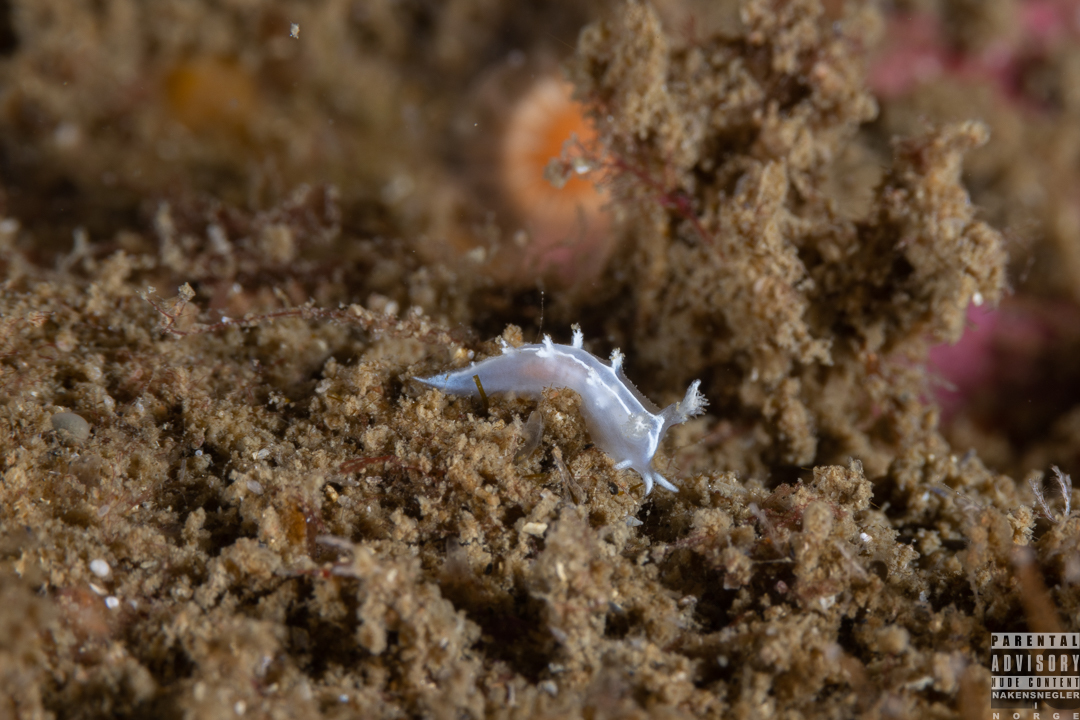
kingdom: Animalia
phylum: Mollusca
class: Gastropoda
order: Nudibranchia
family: Tritoniidae
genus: Duvaucelia
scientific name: Duvaucelia lineata
